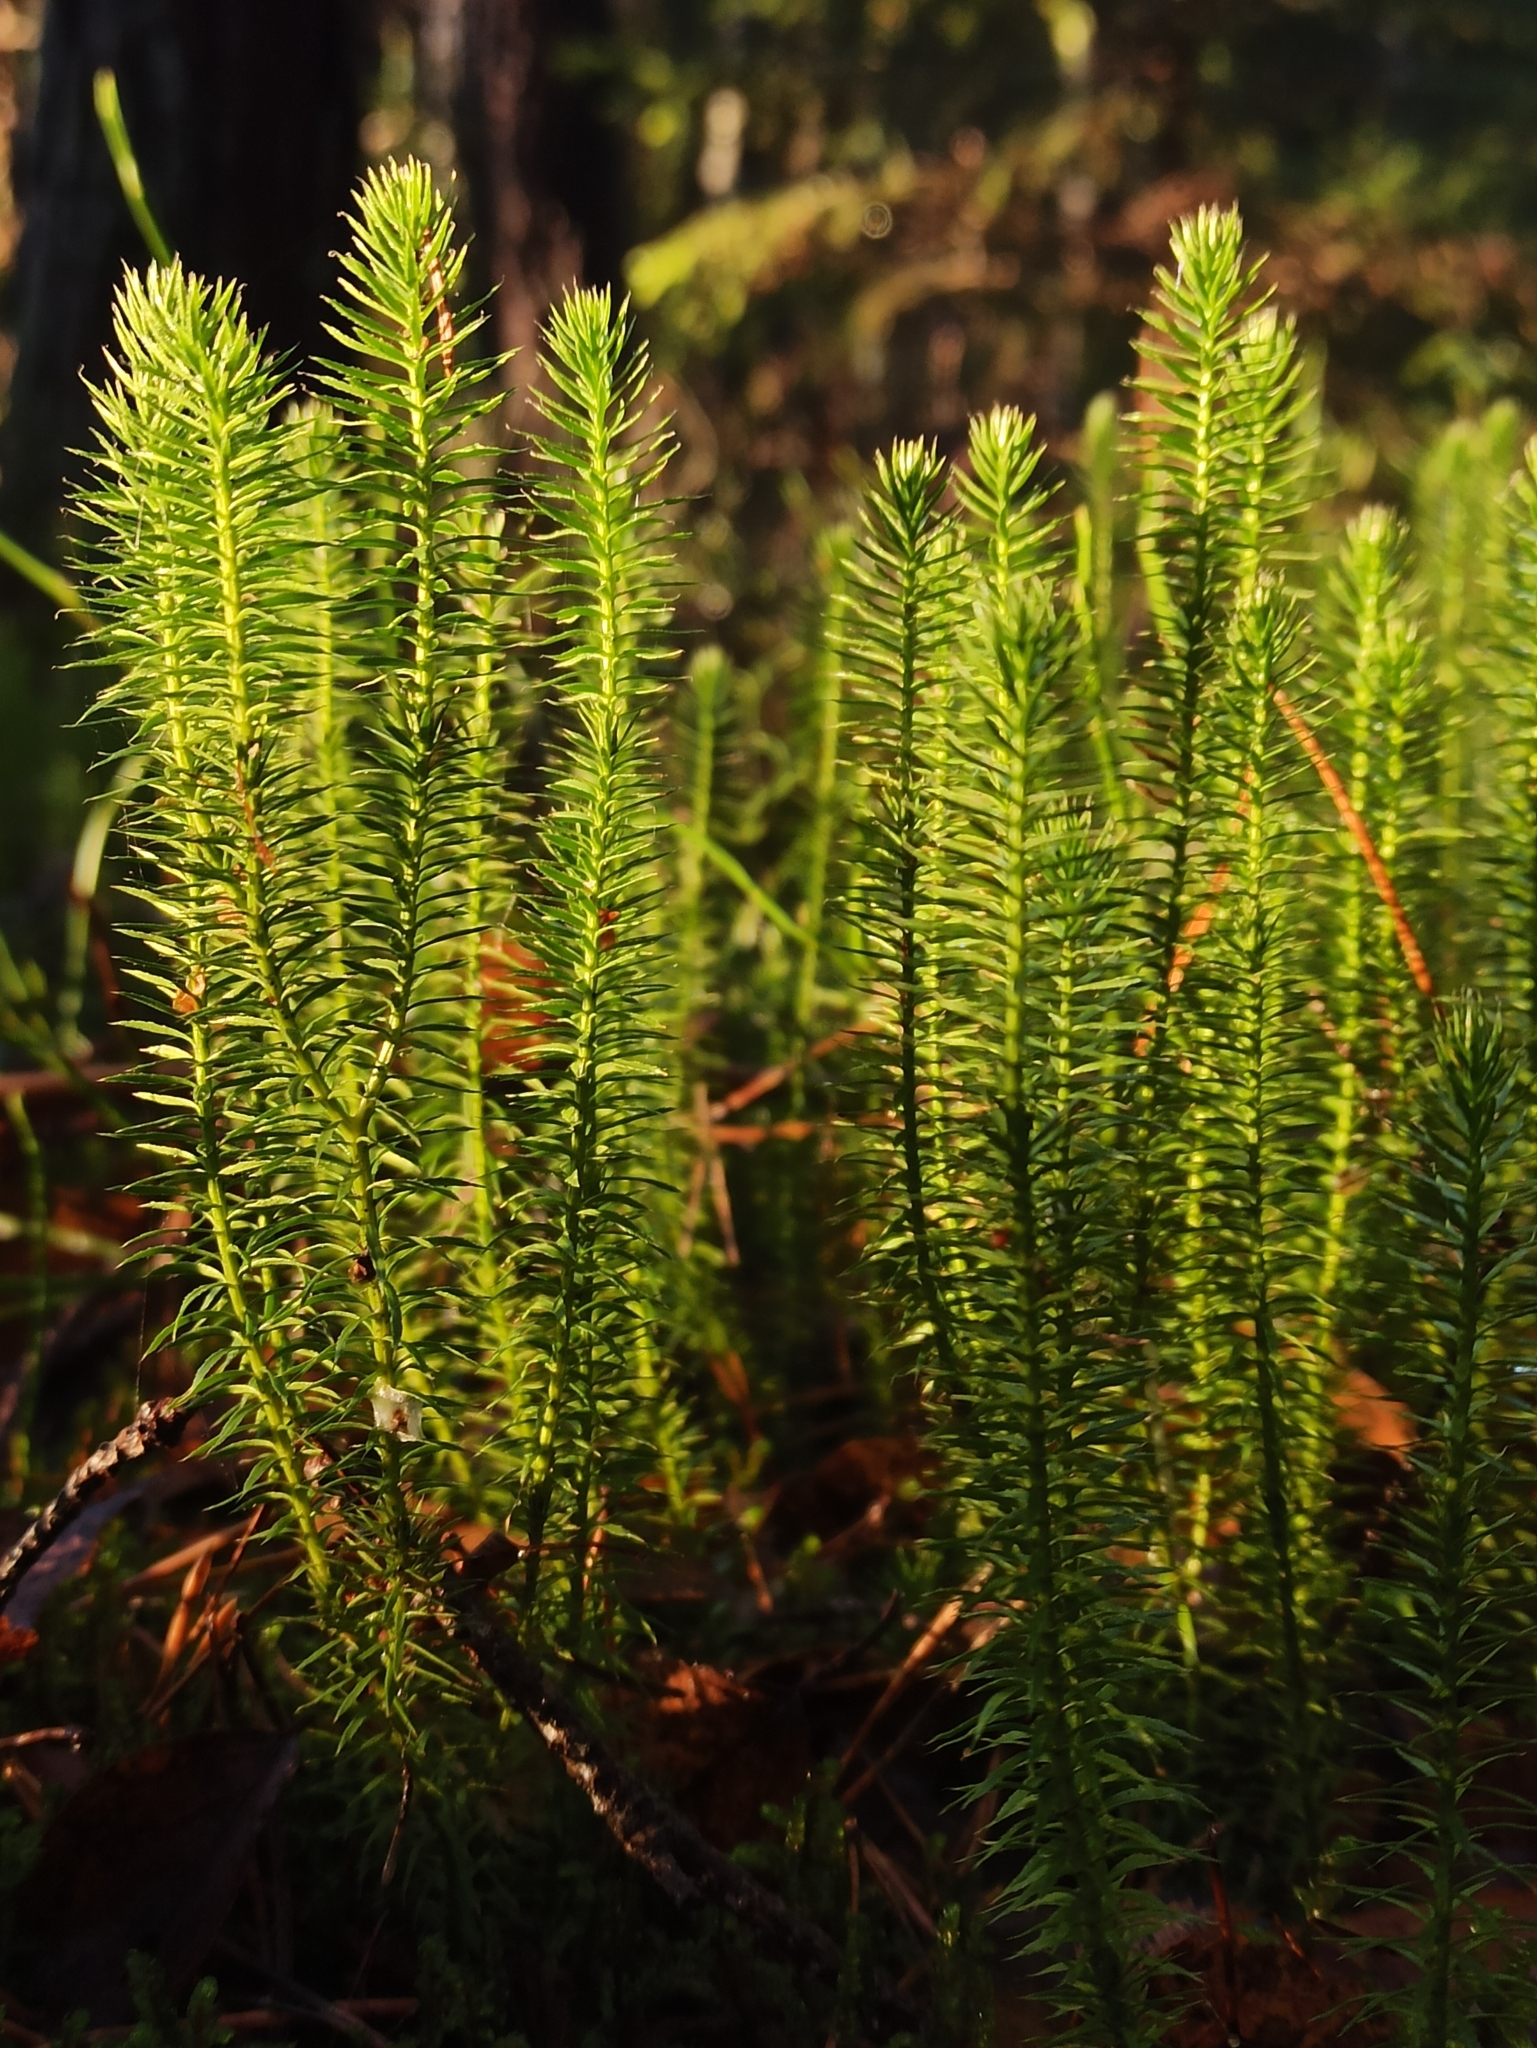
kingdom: Plantae
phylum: Tracheophyta
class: Lycopodiopsida
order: Lycopodiales
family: Lycopodiaceae
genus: Spinulum
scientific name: Spinulum annotinum
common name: Interrupted club-moss
